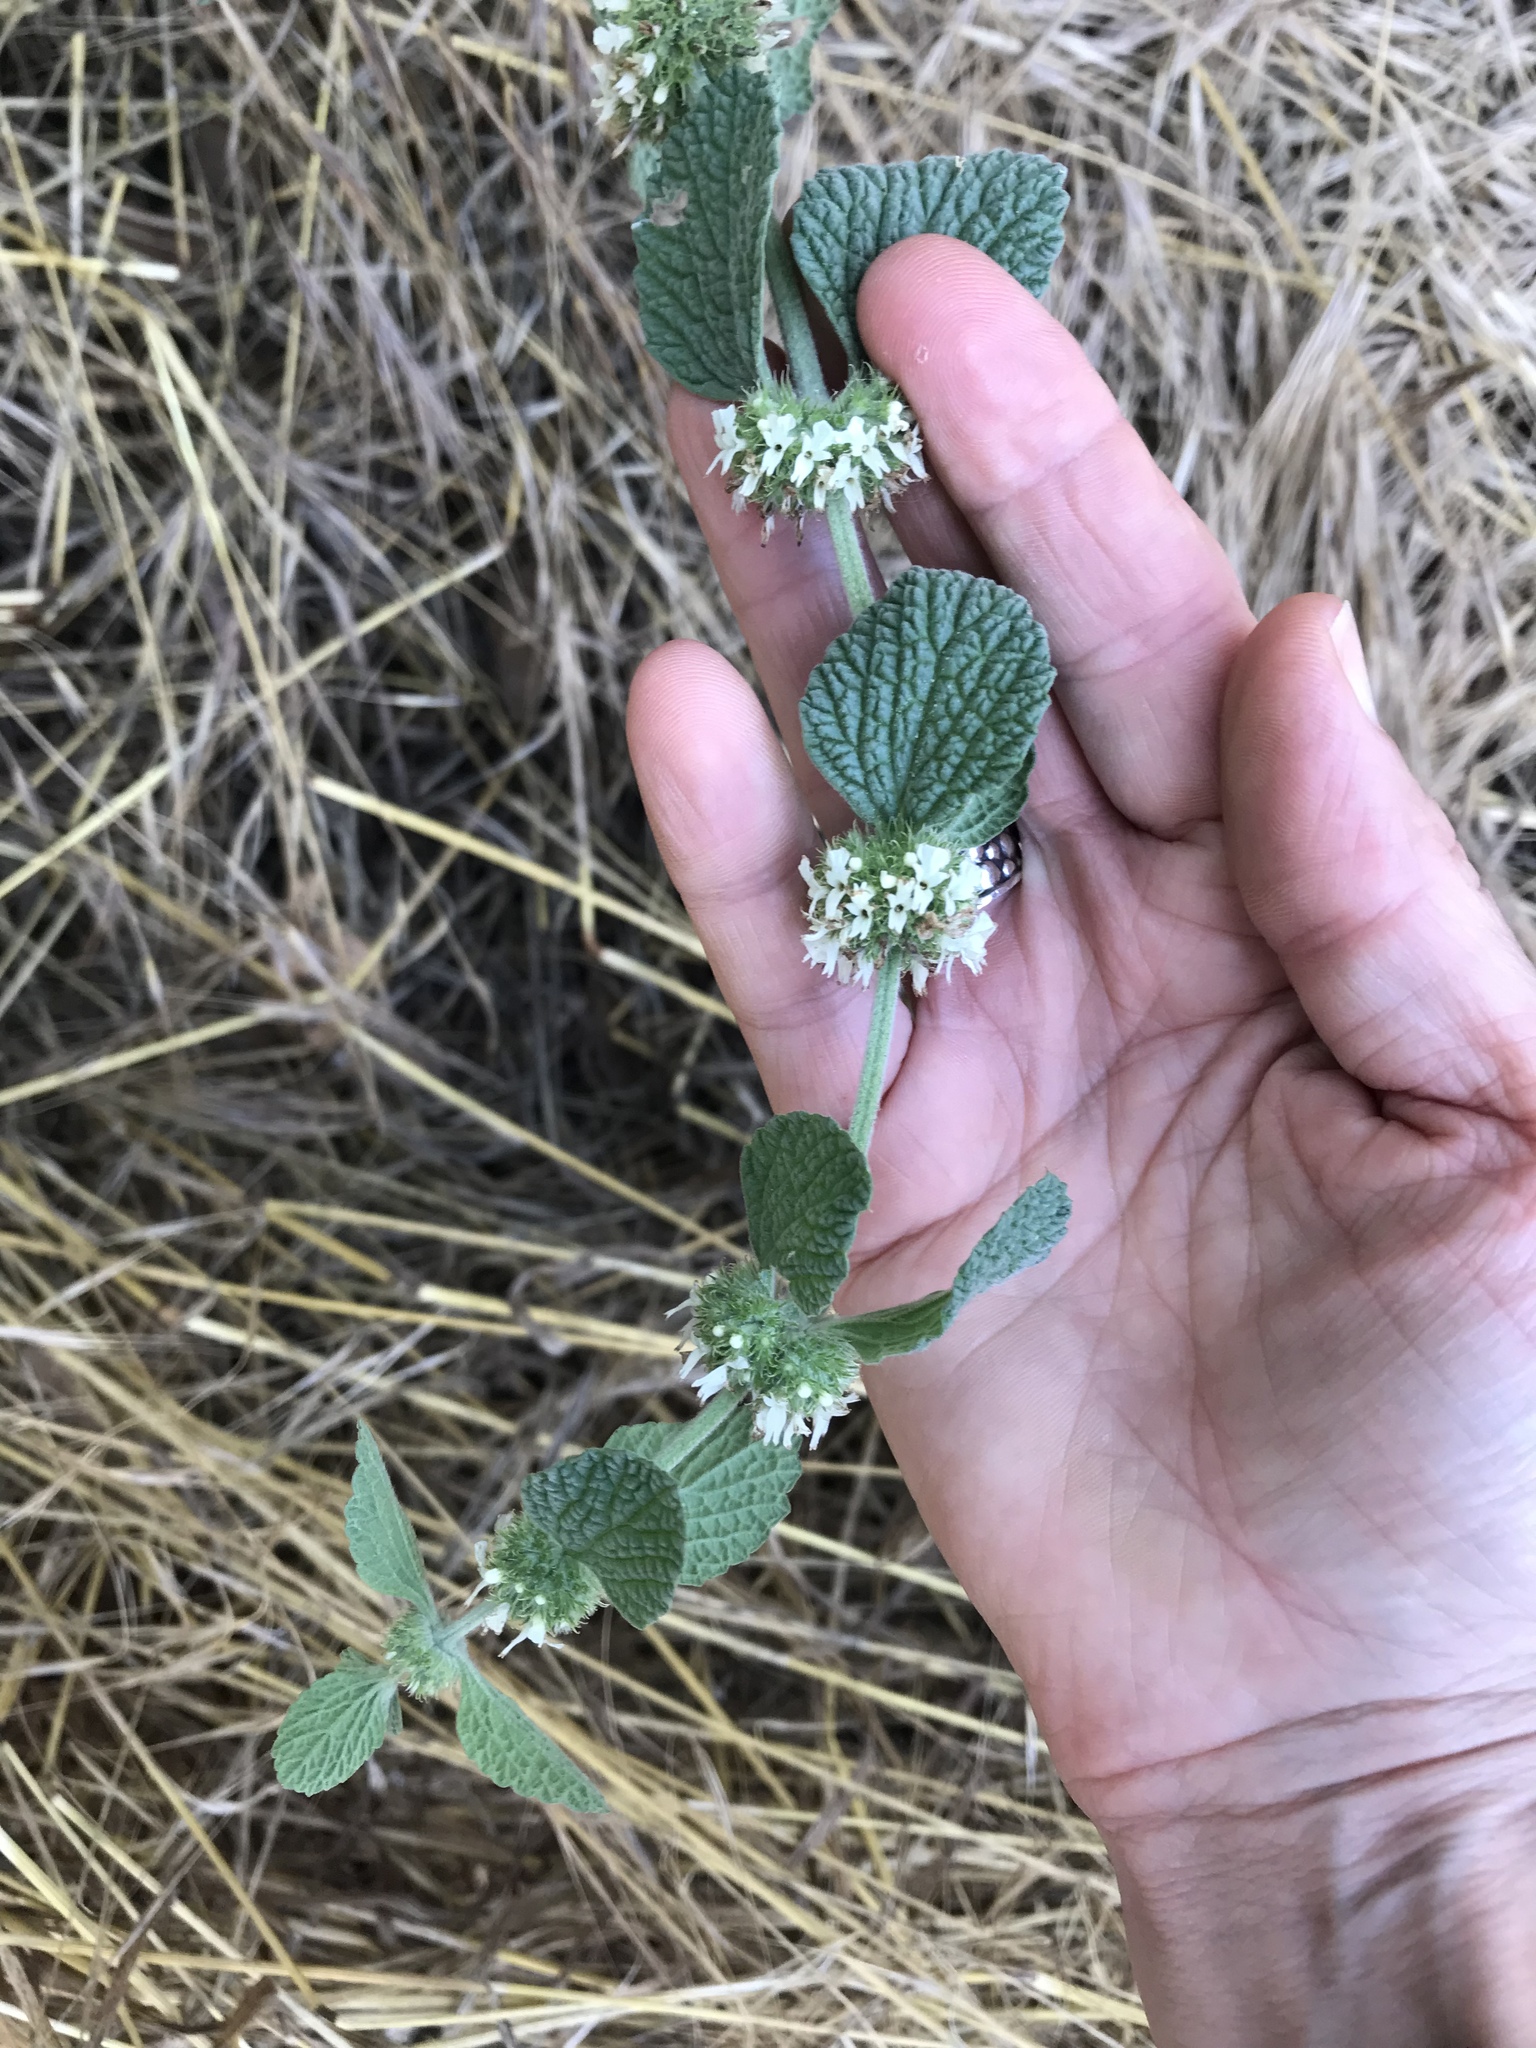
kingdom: Plantae
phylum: Tracheophyta
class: Magnoliopsida
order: Lamiales
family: Lamiaceae
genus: Marrubium
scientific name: Marrubium vulgare
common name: Horehound
